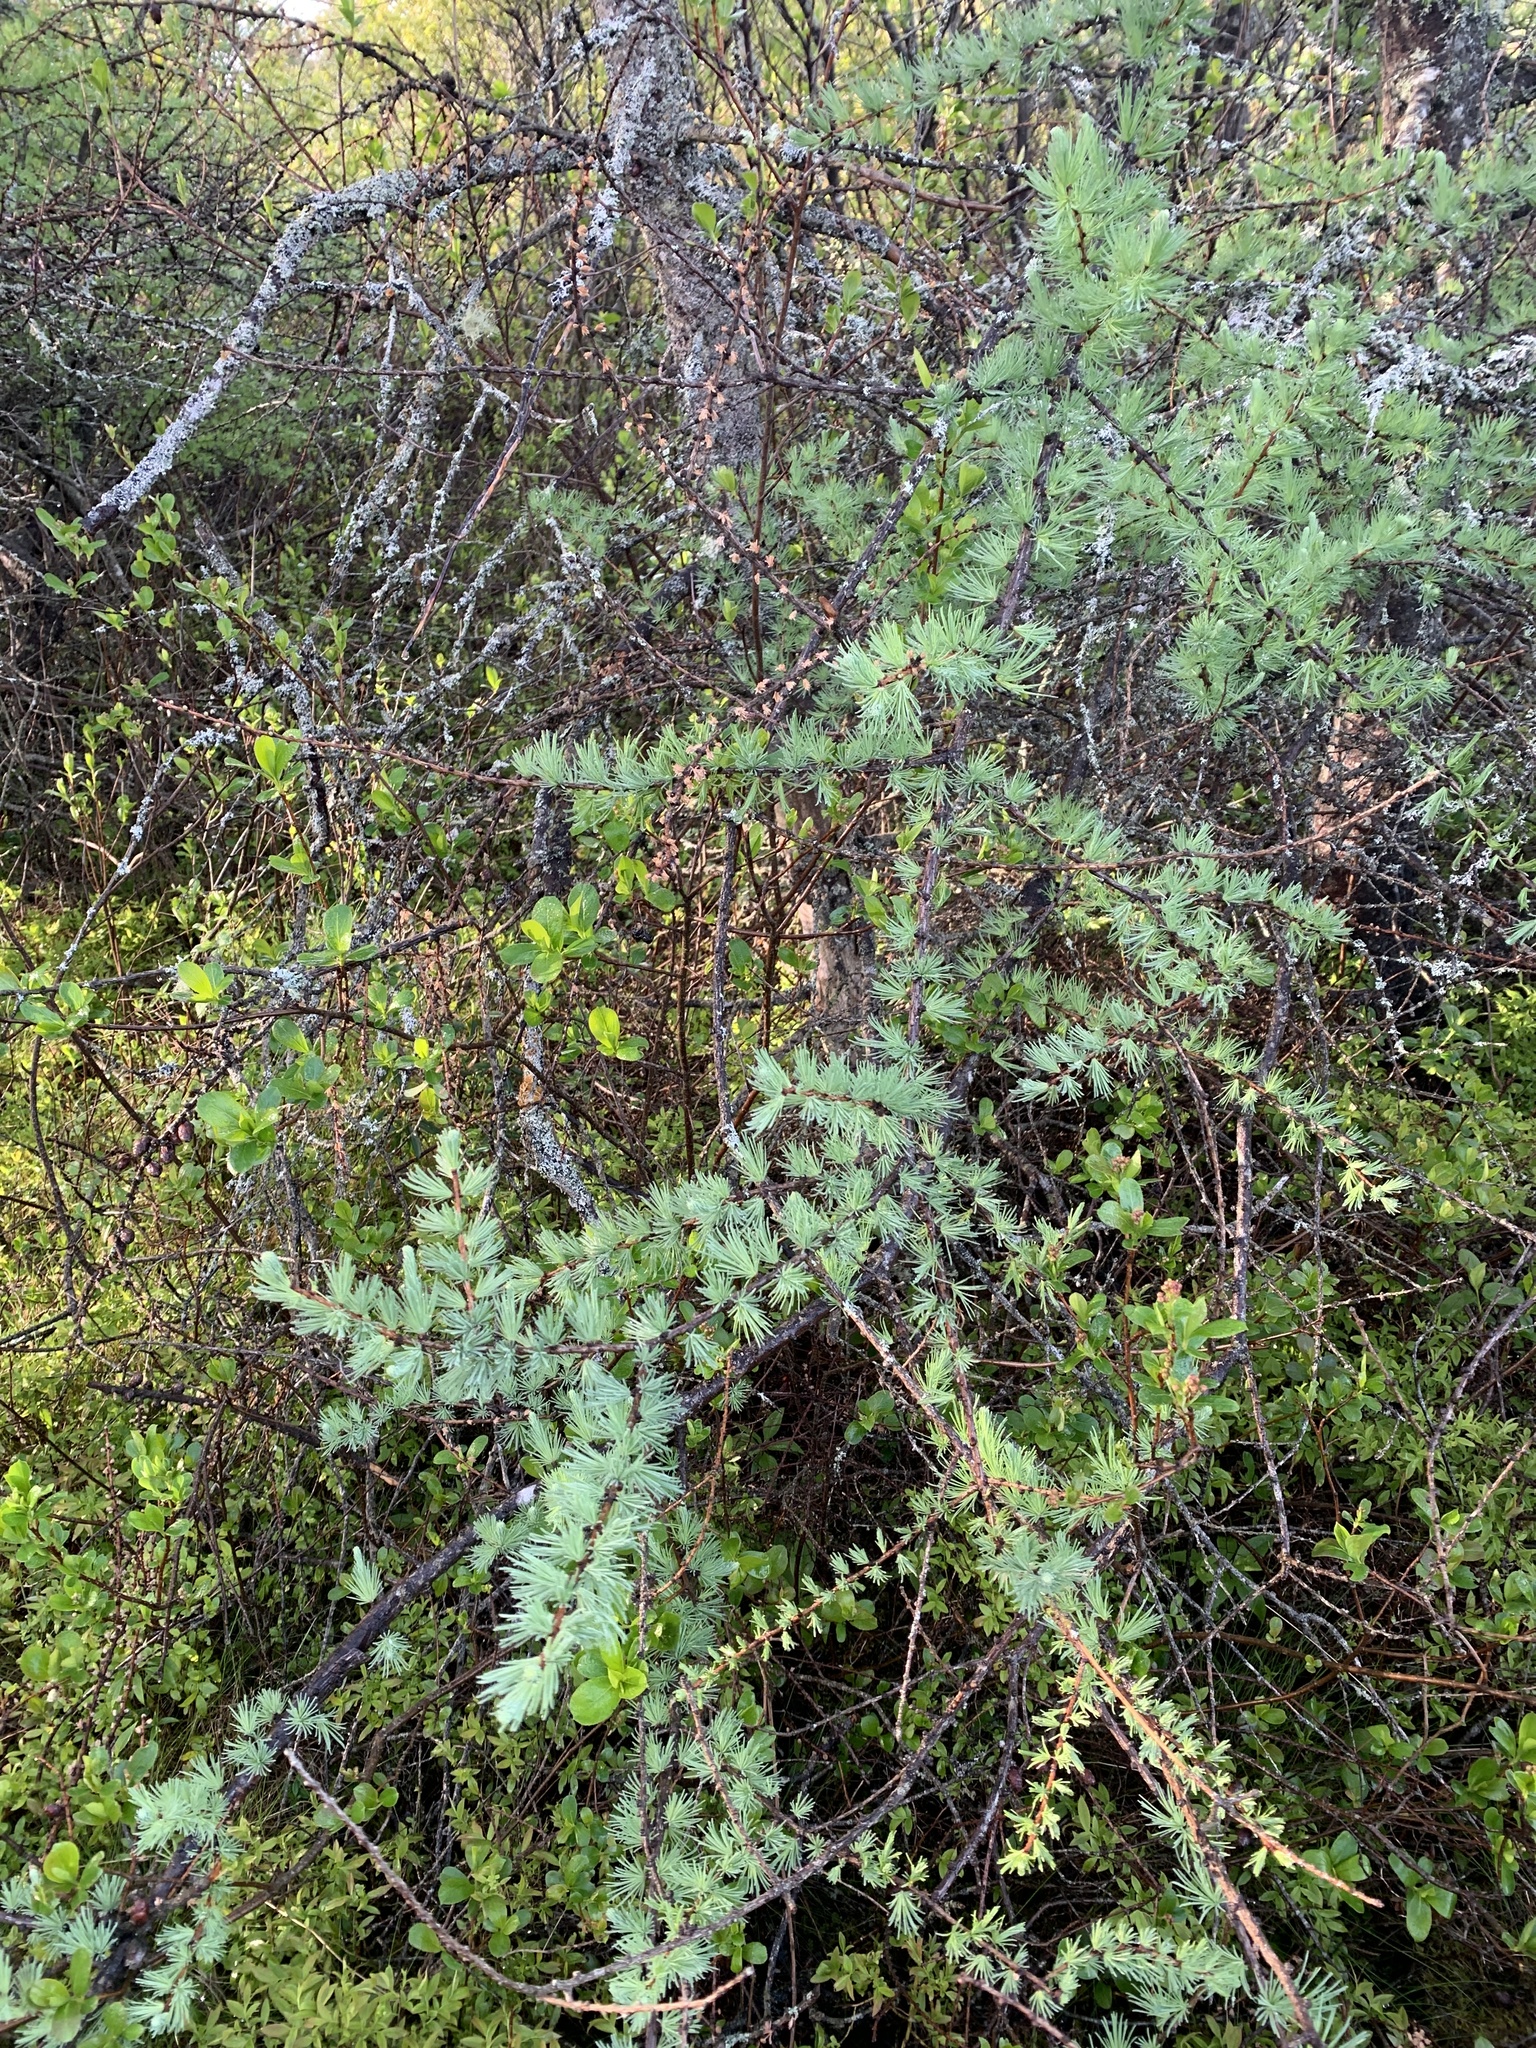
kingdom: Plantae
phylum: Tracheophyta
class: Pinopsida
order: Pinales
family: Pinaceae
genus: Larix
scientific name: Larix laricina
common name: American larch
